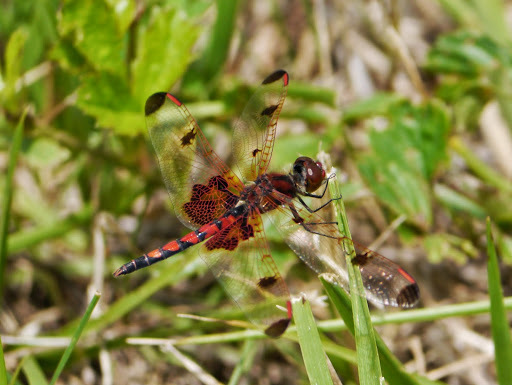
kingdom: Animalia
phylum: Arthropoda
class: Insecta
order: Odonata
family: Libellulidae
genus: Celithemis
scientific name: Celithemis elisa
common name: Calico pennant
